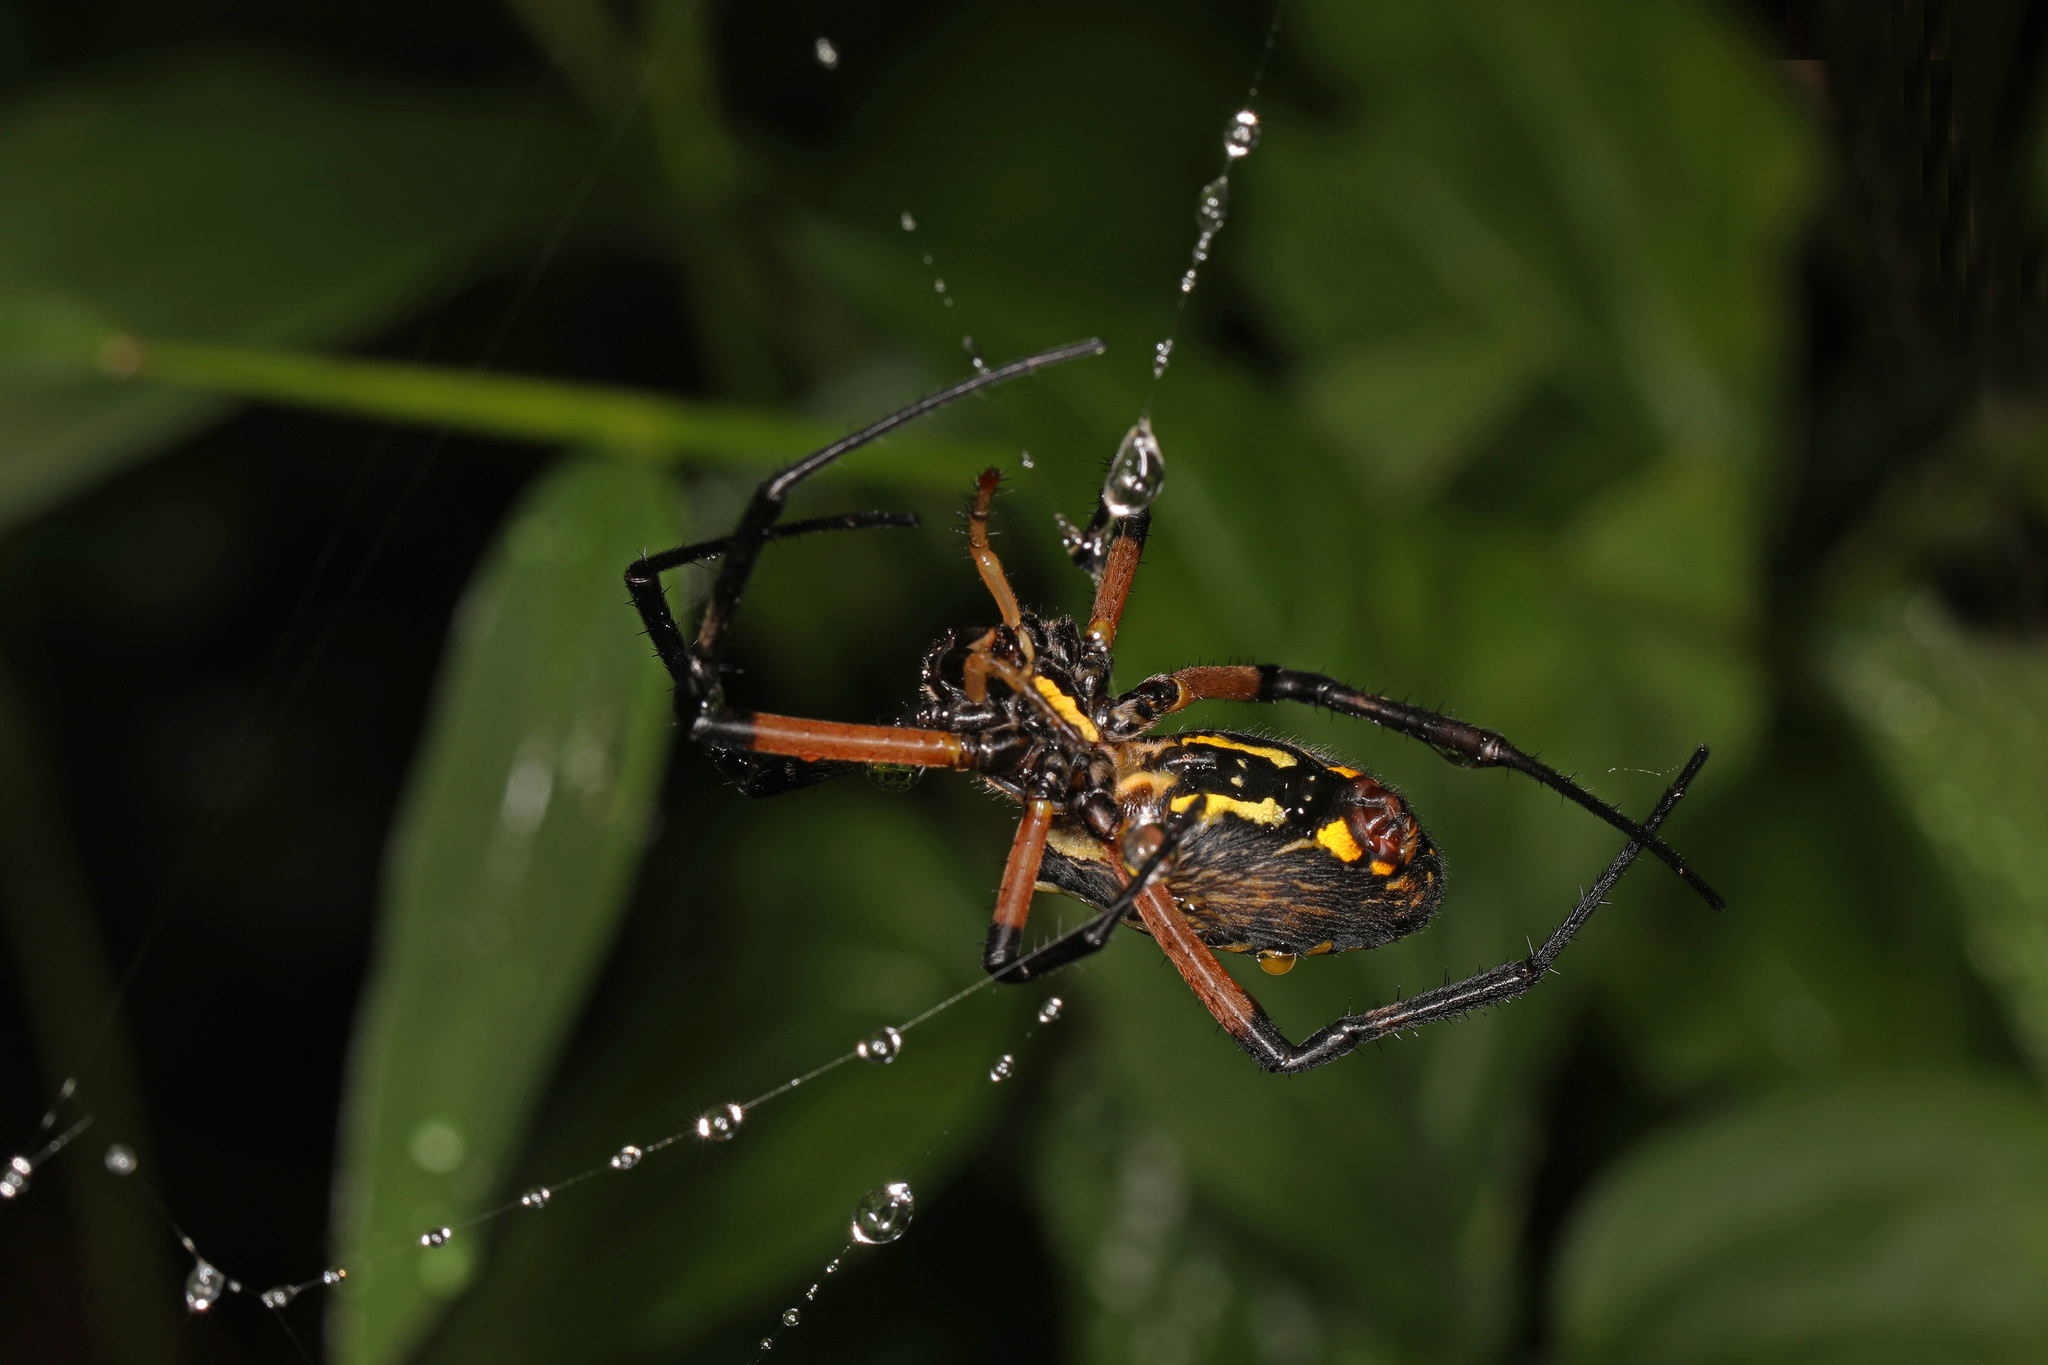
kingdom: Animalia
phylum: Arthropoda
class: Arachnida
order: Araneae
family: Araneidae
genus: Argiope
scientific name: Argiope aurantia
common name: Orb weavers
